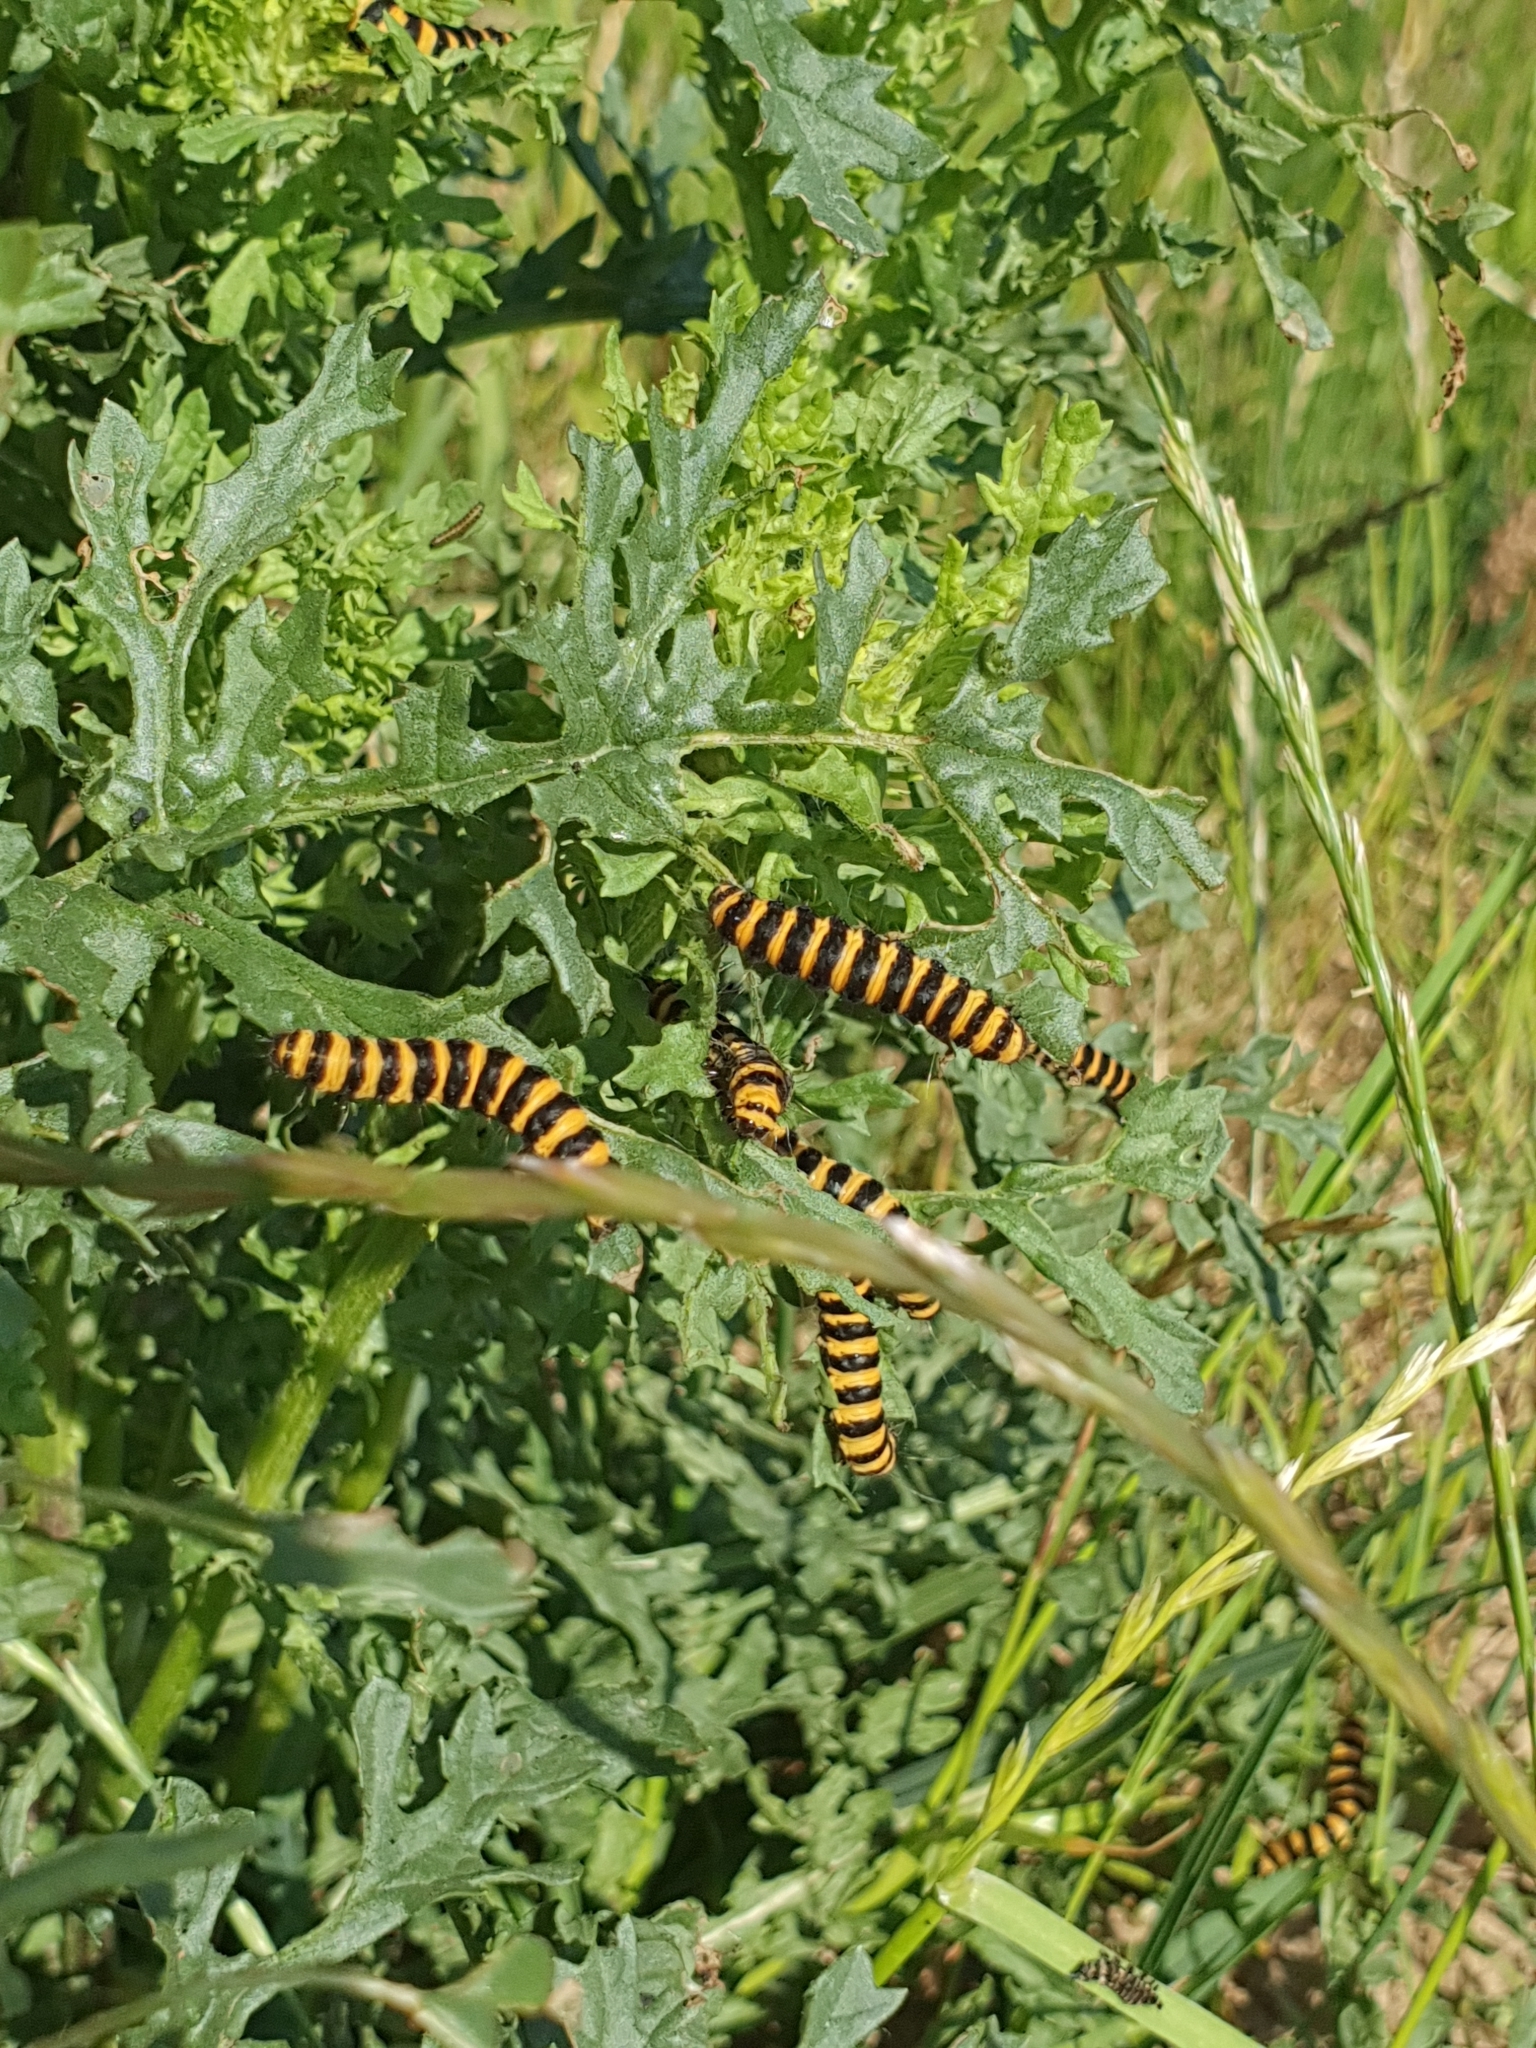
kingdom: Animalia
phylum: Arthropoda
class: Insecta
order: Lepidoptera
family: Erebidae
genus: Tyria
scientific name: Tyria jacobaeae
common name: Cinnabar
